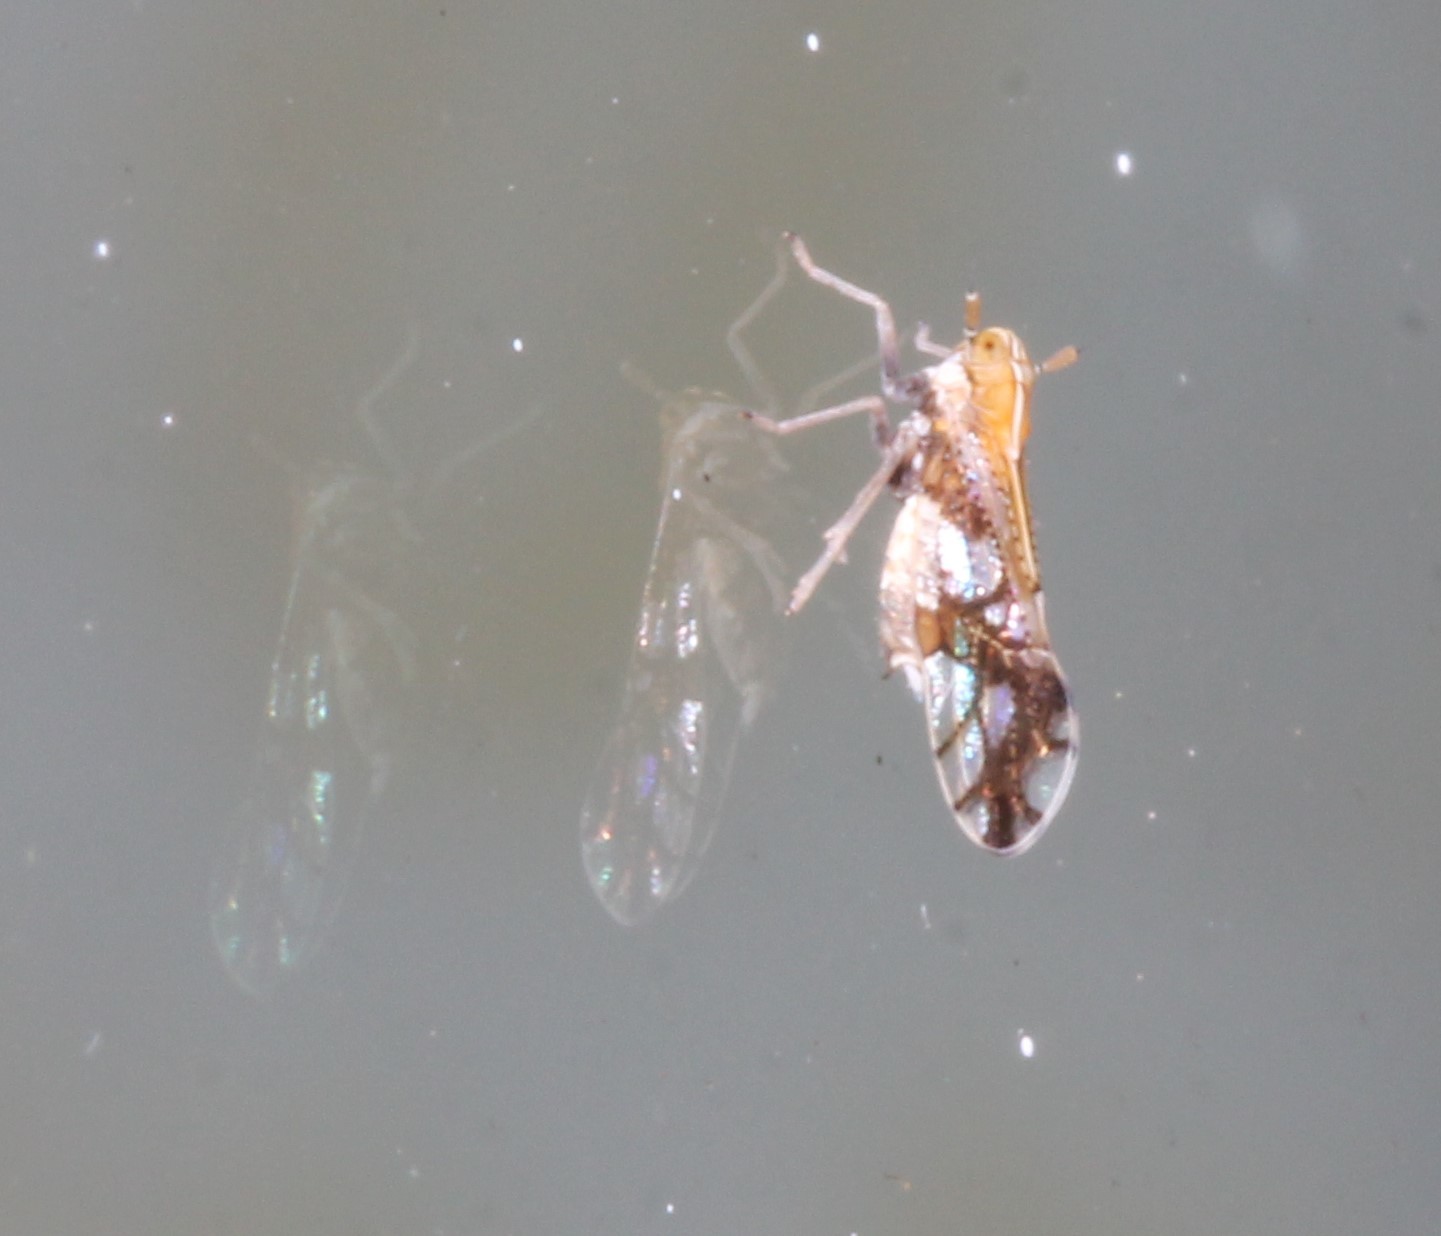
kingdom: Animalia
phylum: Arthropoda
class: Insecta
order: Hemiptera
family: Delphacidae
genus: Liburniella
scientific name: Liburniella ornata
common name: Ornate planthopper
